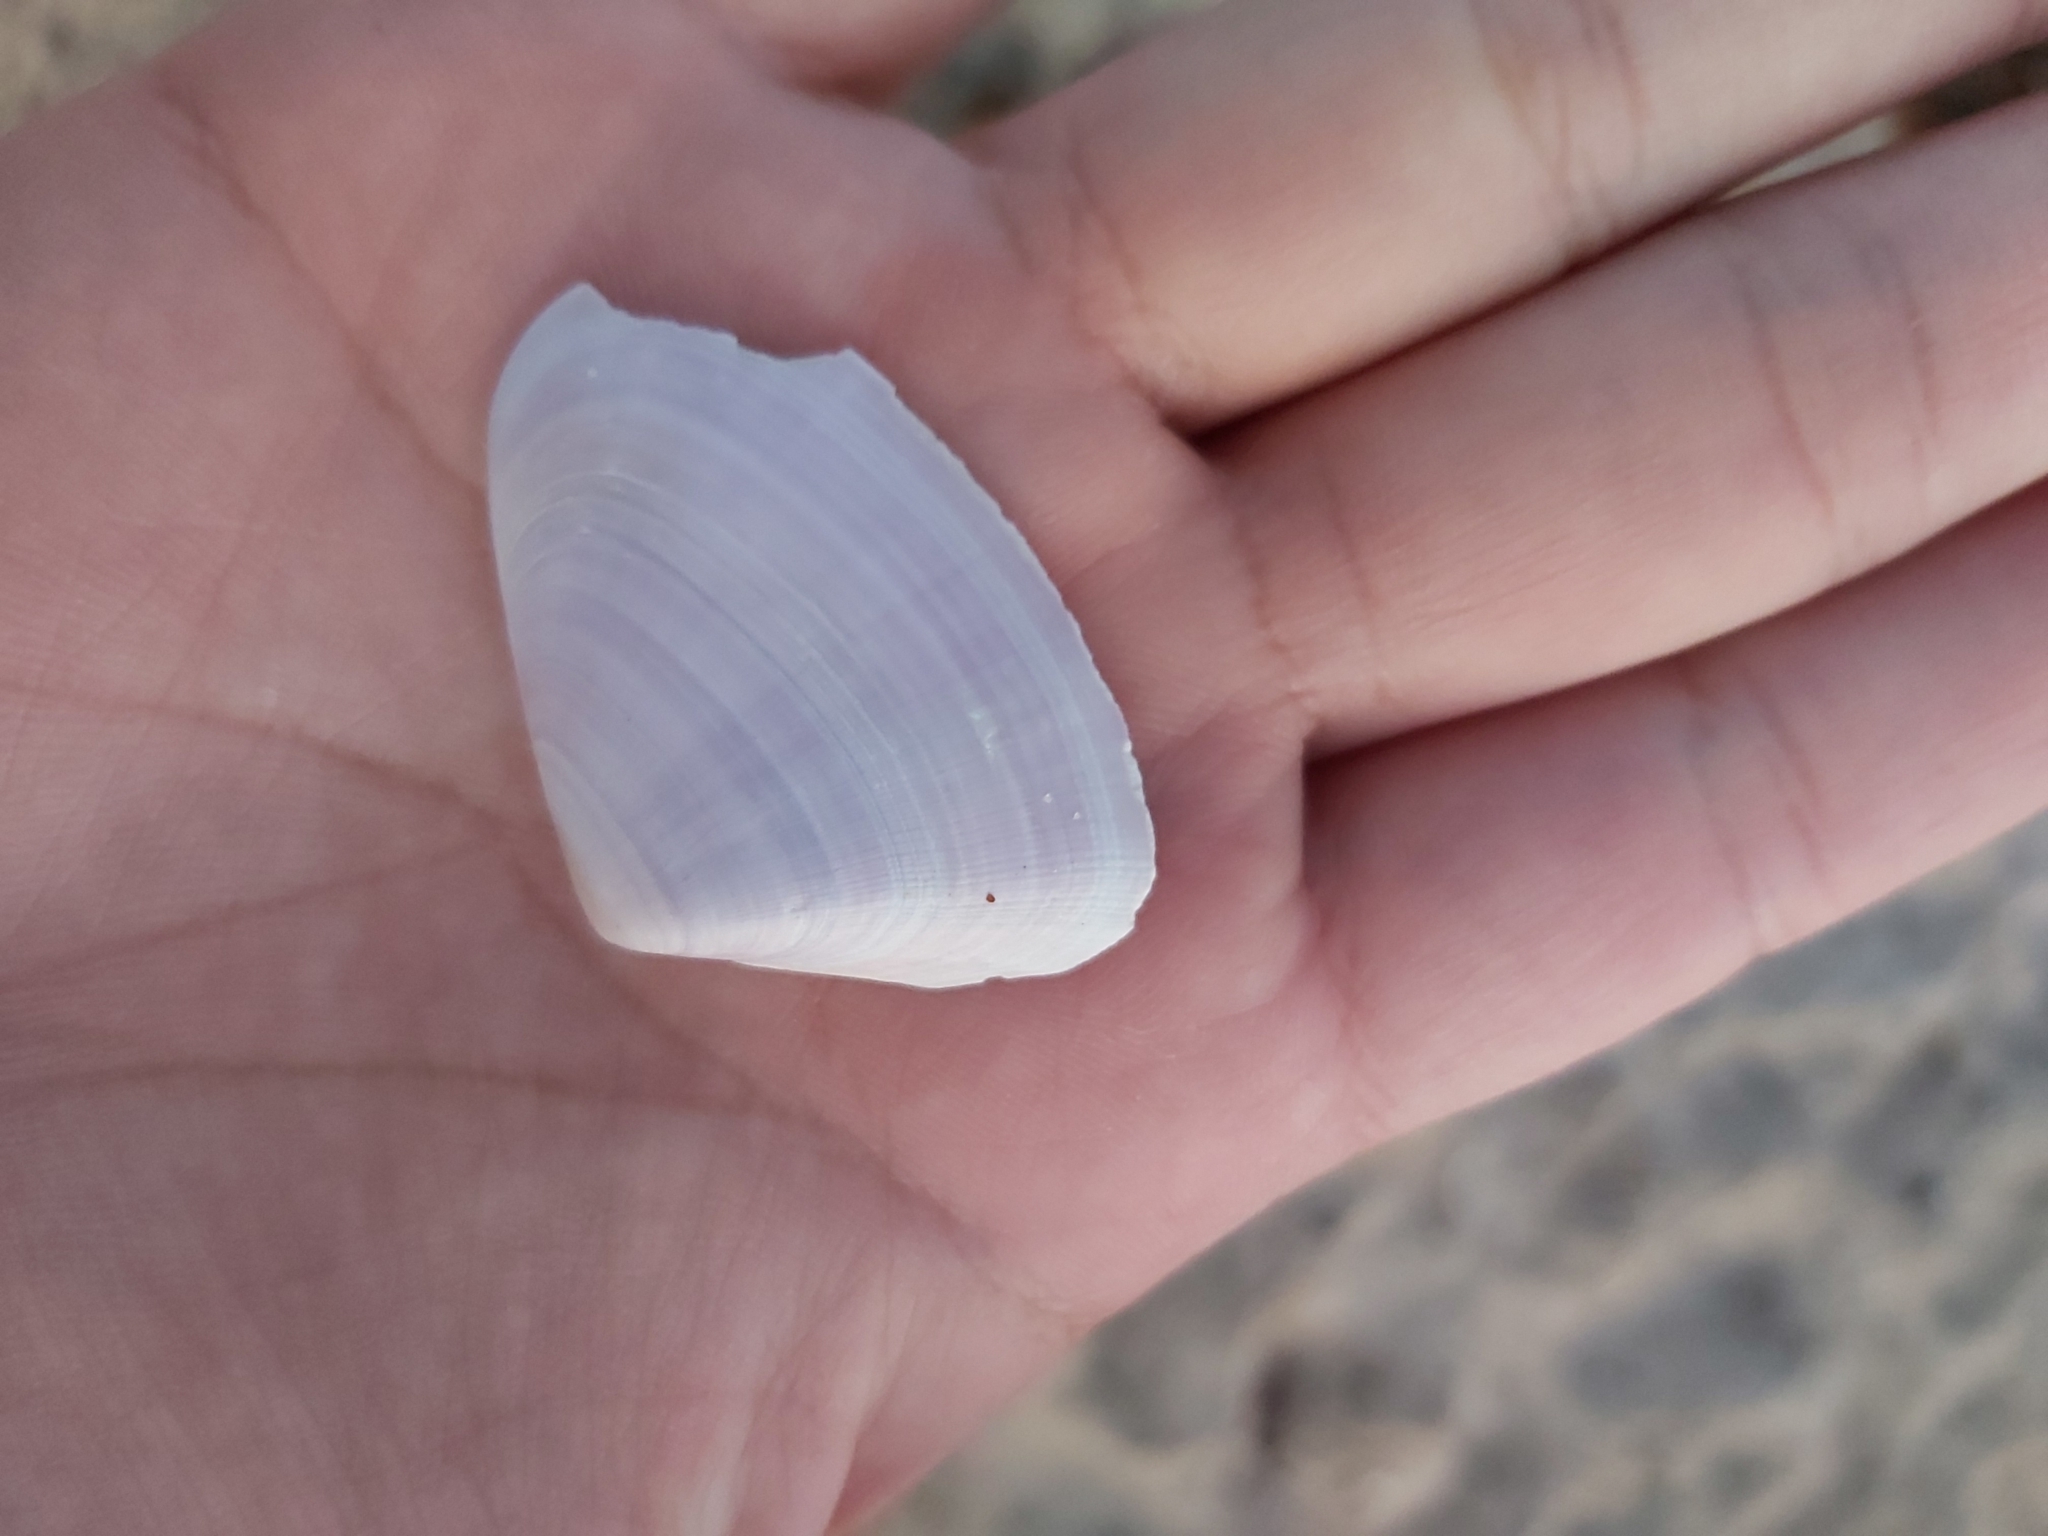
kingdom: Animalia
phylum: Mollusca
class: Bivalvia
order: Cardiida
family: Donacidae
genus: Latona
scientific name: Latona deltoides
